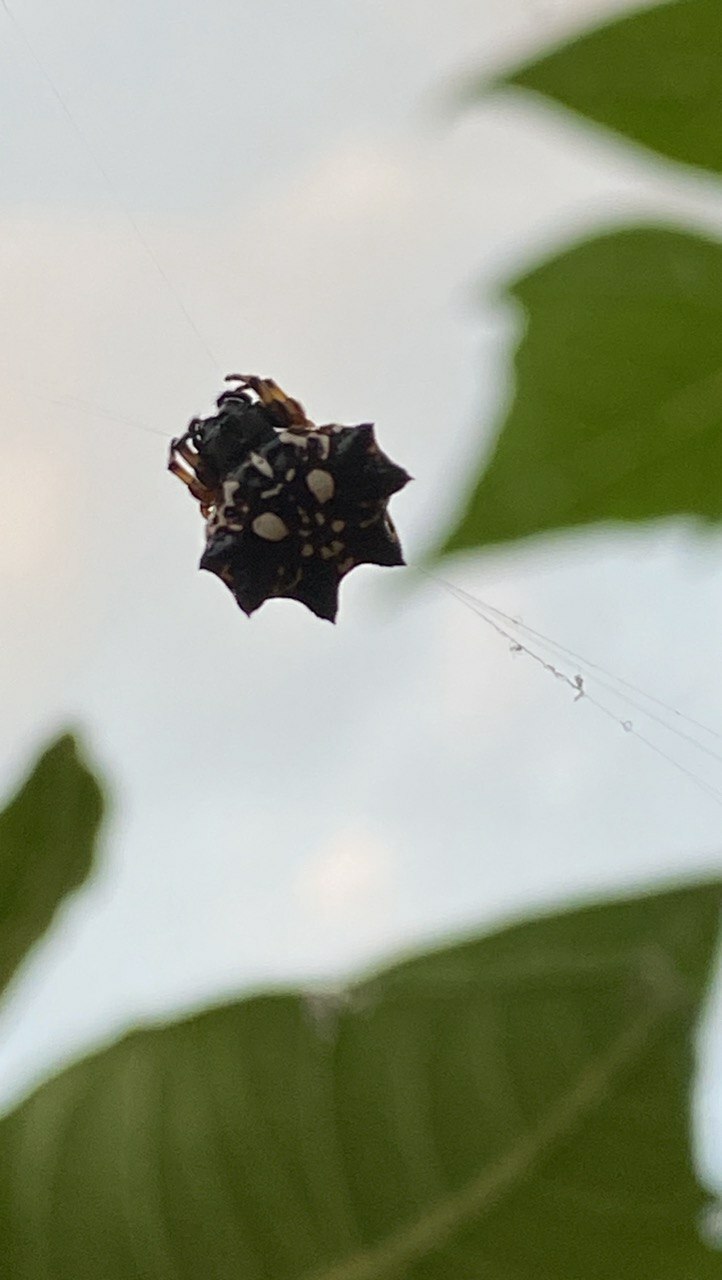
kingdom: Animalia
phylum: Arthropoda
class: Arachnida
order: Araneae
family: Araneidae
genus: Thelacantha
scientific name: Thelacantha brevispina
